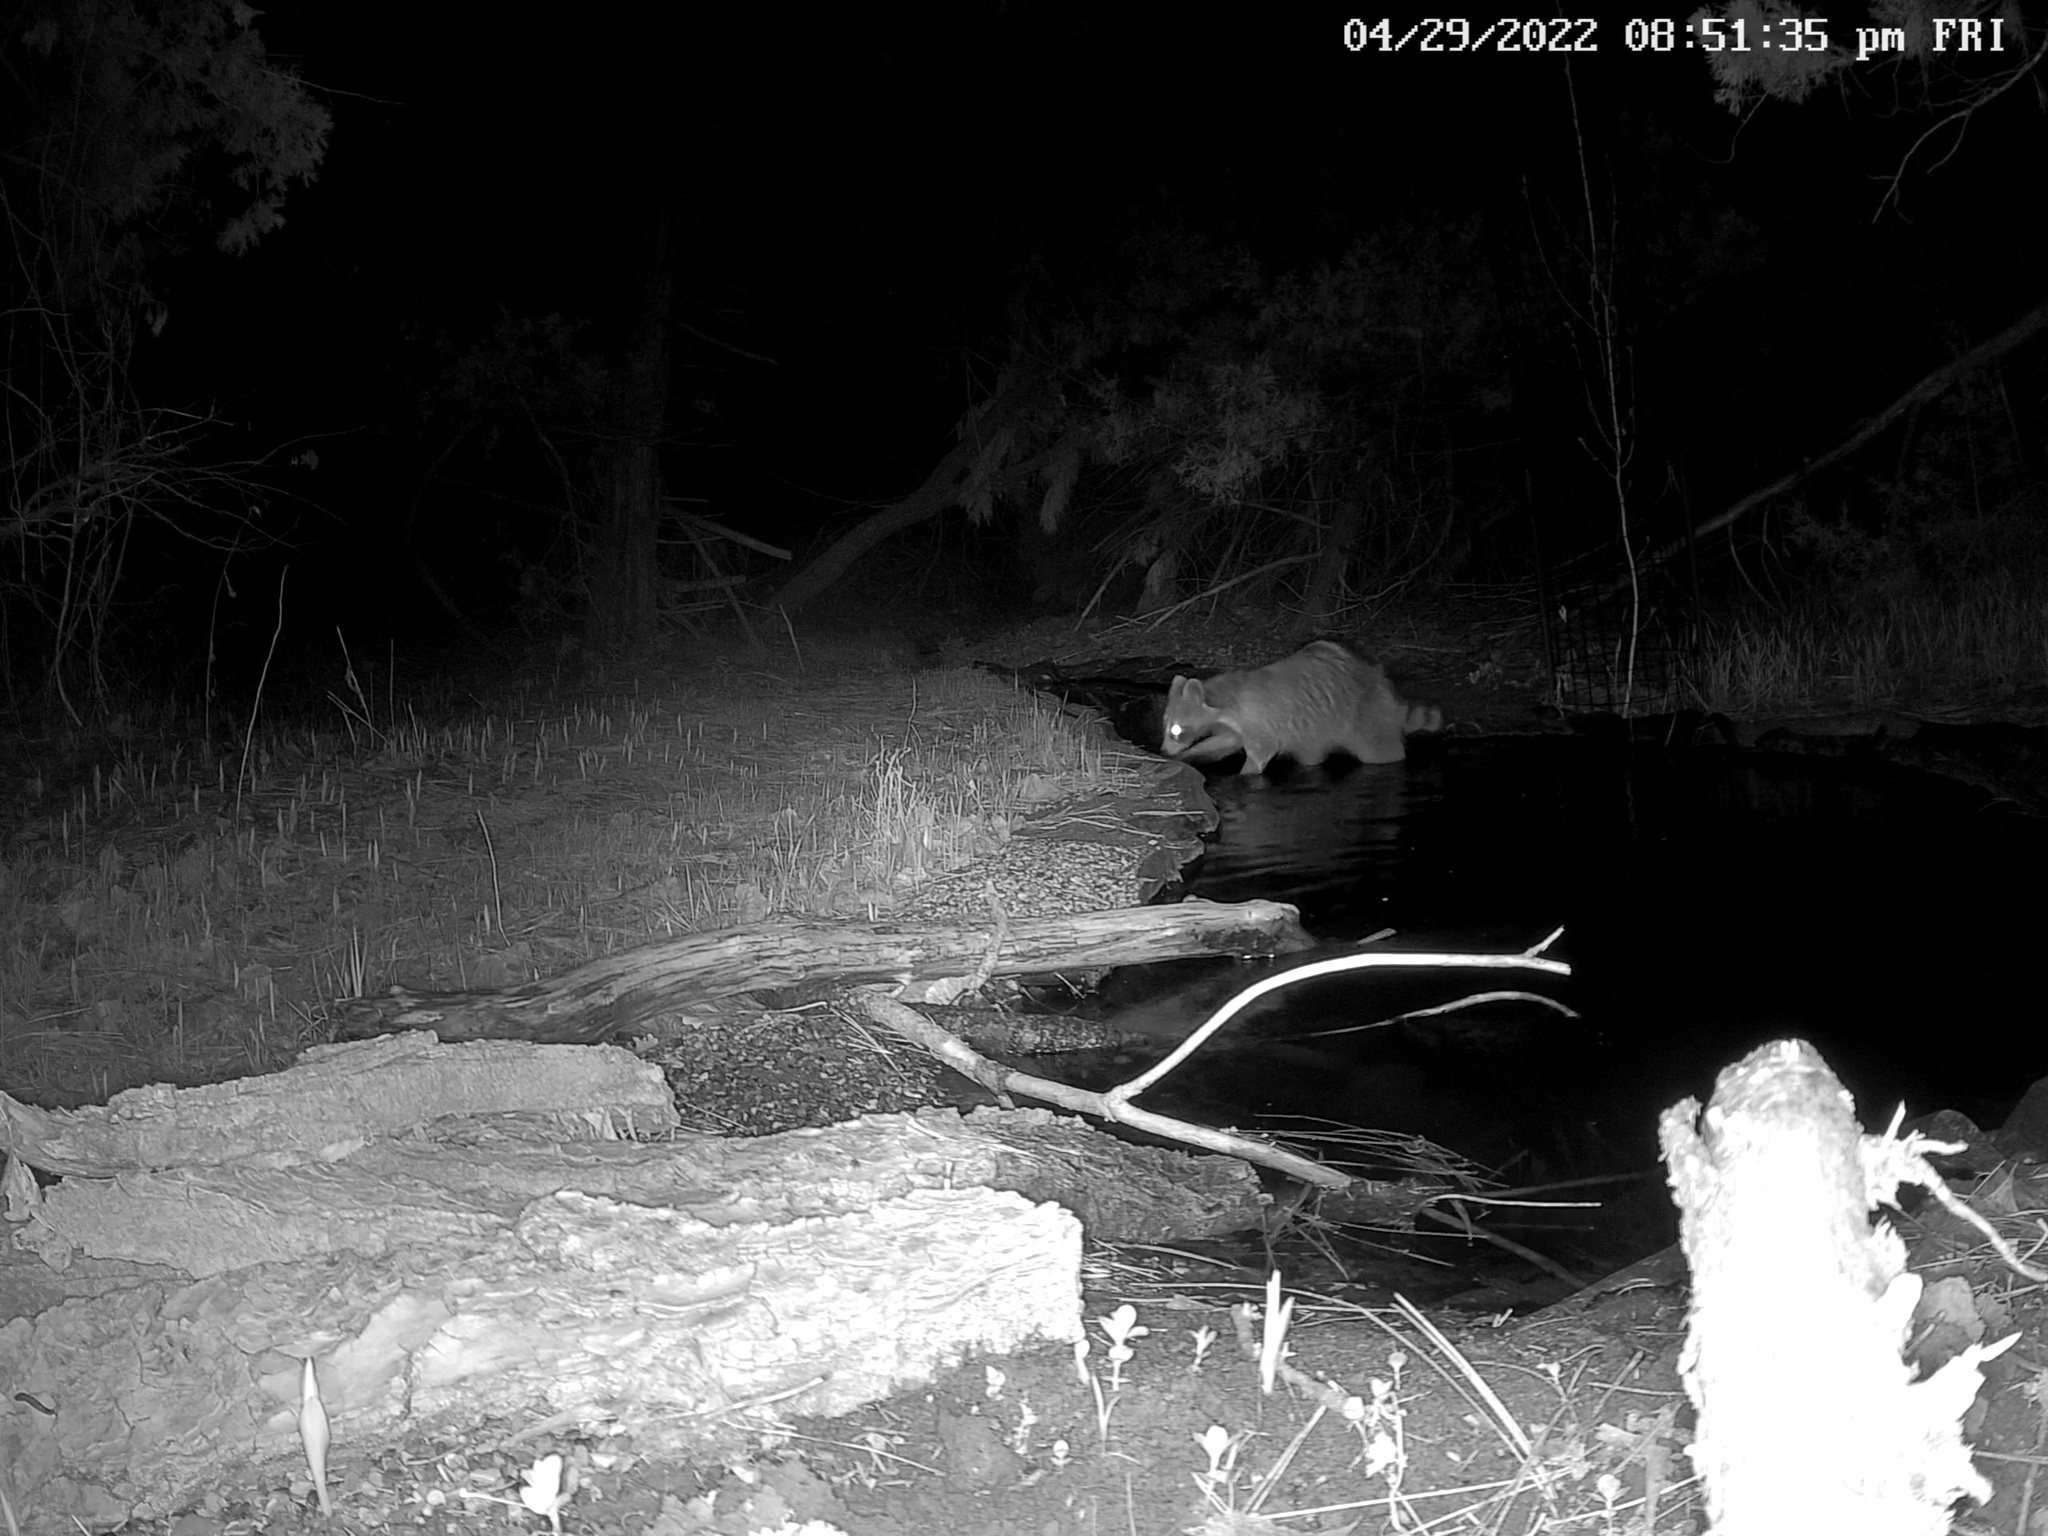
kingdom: Animalia
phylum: Chordata
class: Mammalia
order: Carnivora
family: Procyonidae
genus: Procyon
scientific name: Procyon lotor
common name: Raccoon
